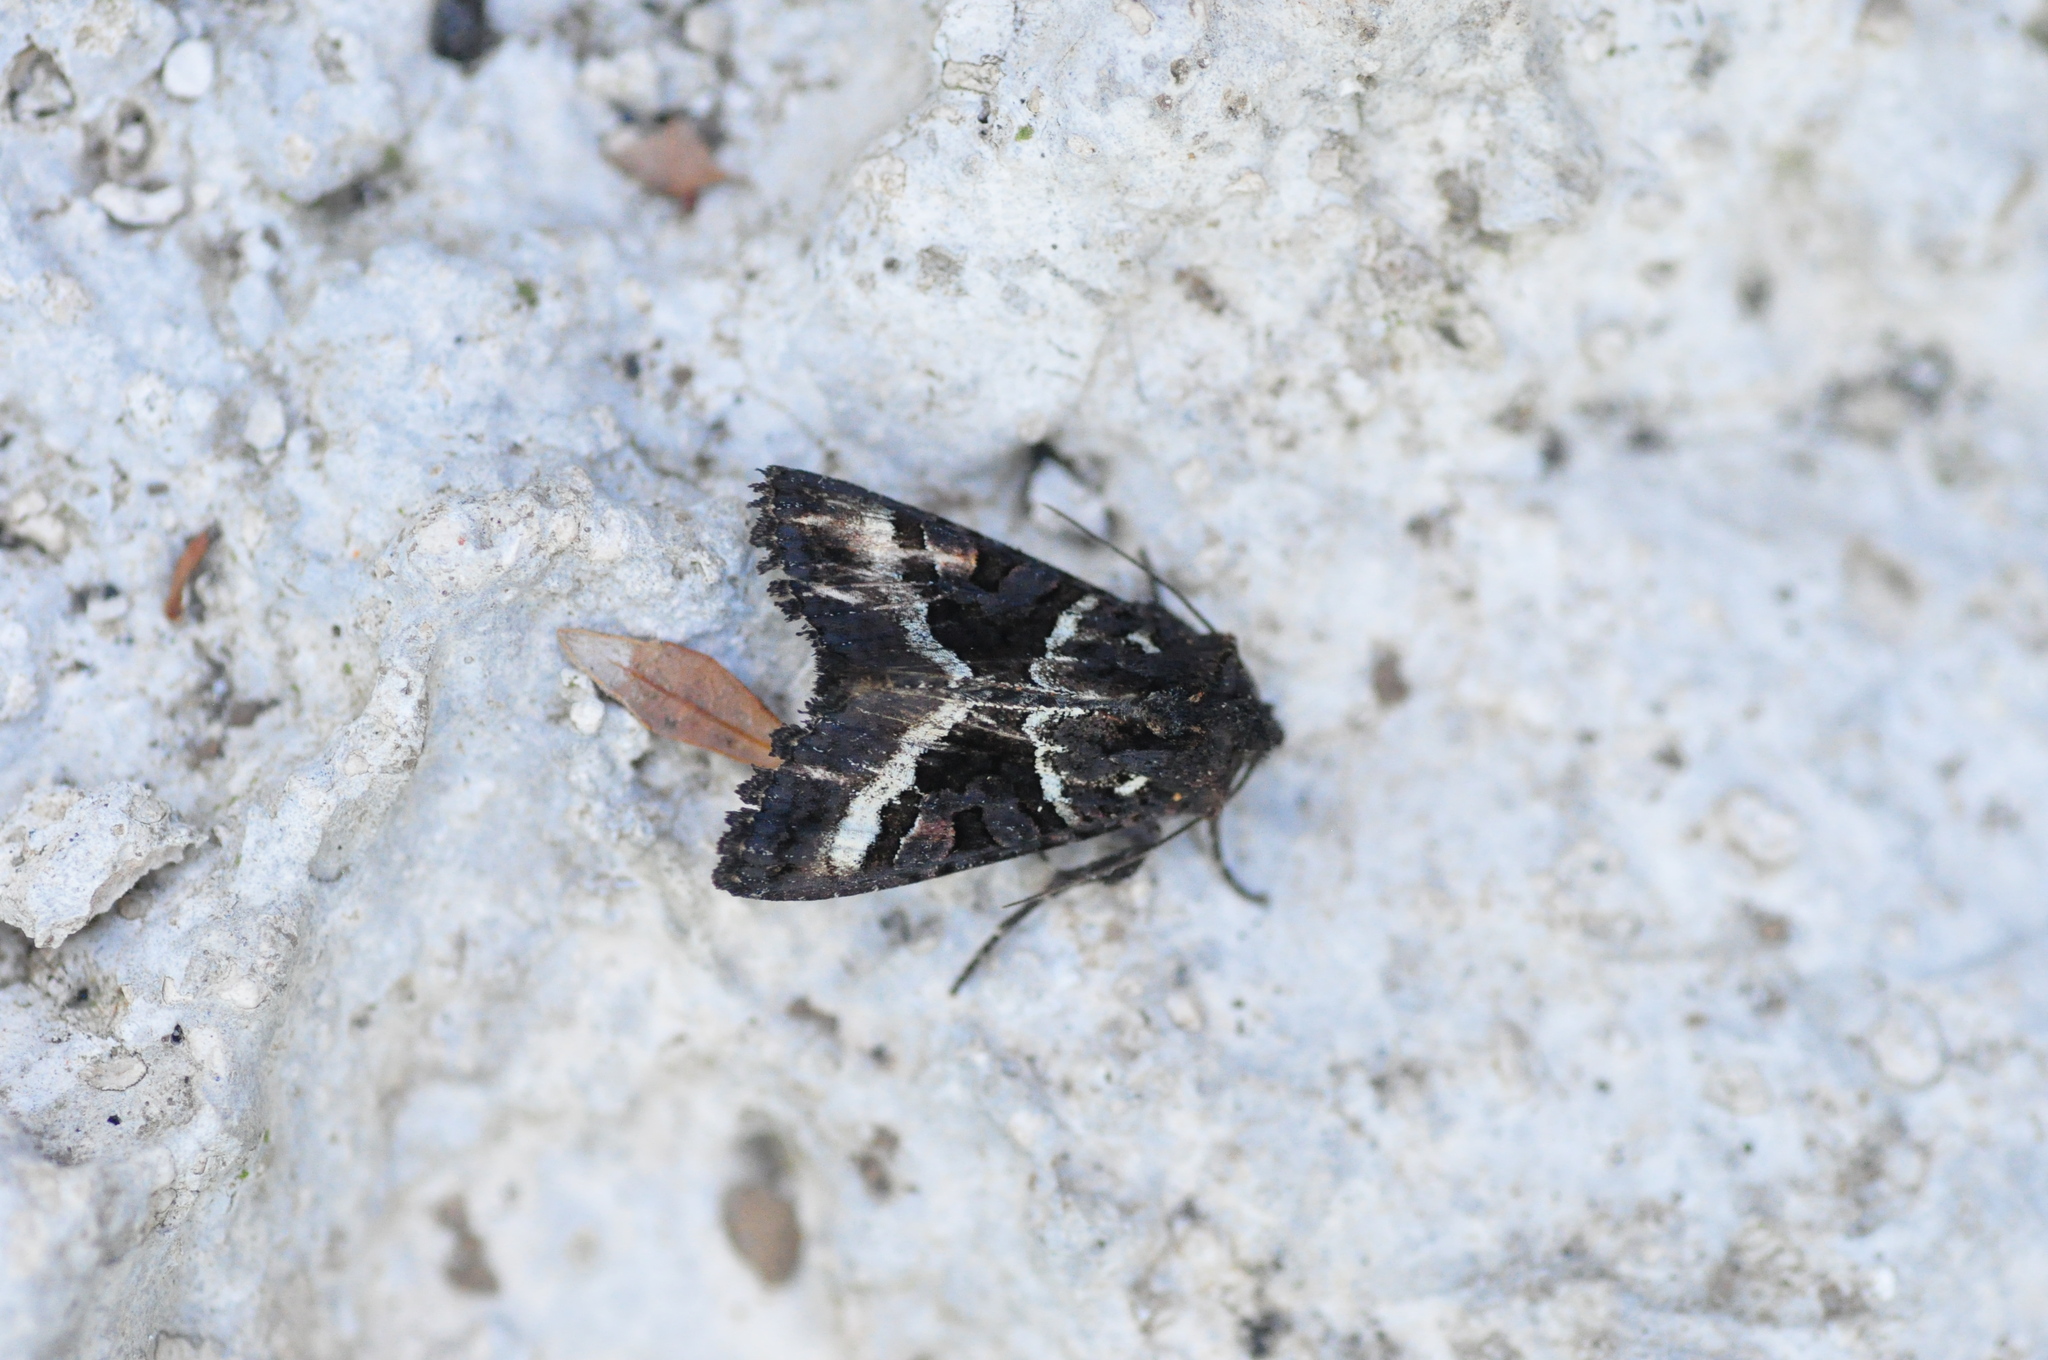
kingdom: Animalia
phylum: Arthropoda
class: Insecta
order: Lepidoptera
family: Noctuidae
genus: Euplexia
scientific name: Euplexia euplexina
